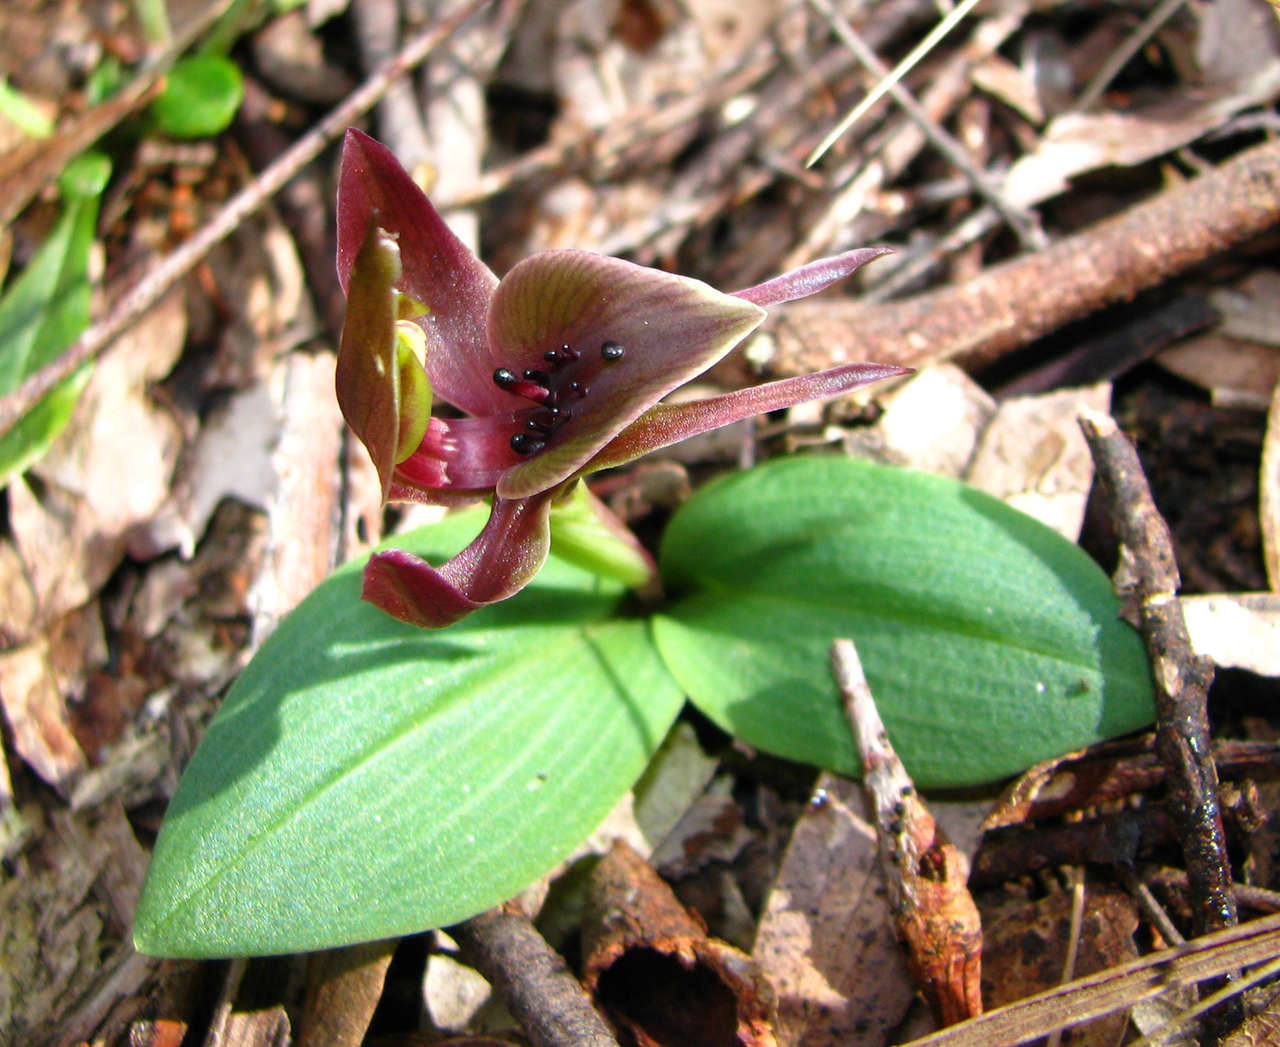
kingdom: Plantae
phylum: Tracheophyta
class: Liliopsida
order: Asparagales
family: Orchidaceae
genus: Chiloglottis
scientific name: Chiloglottis valida
